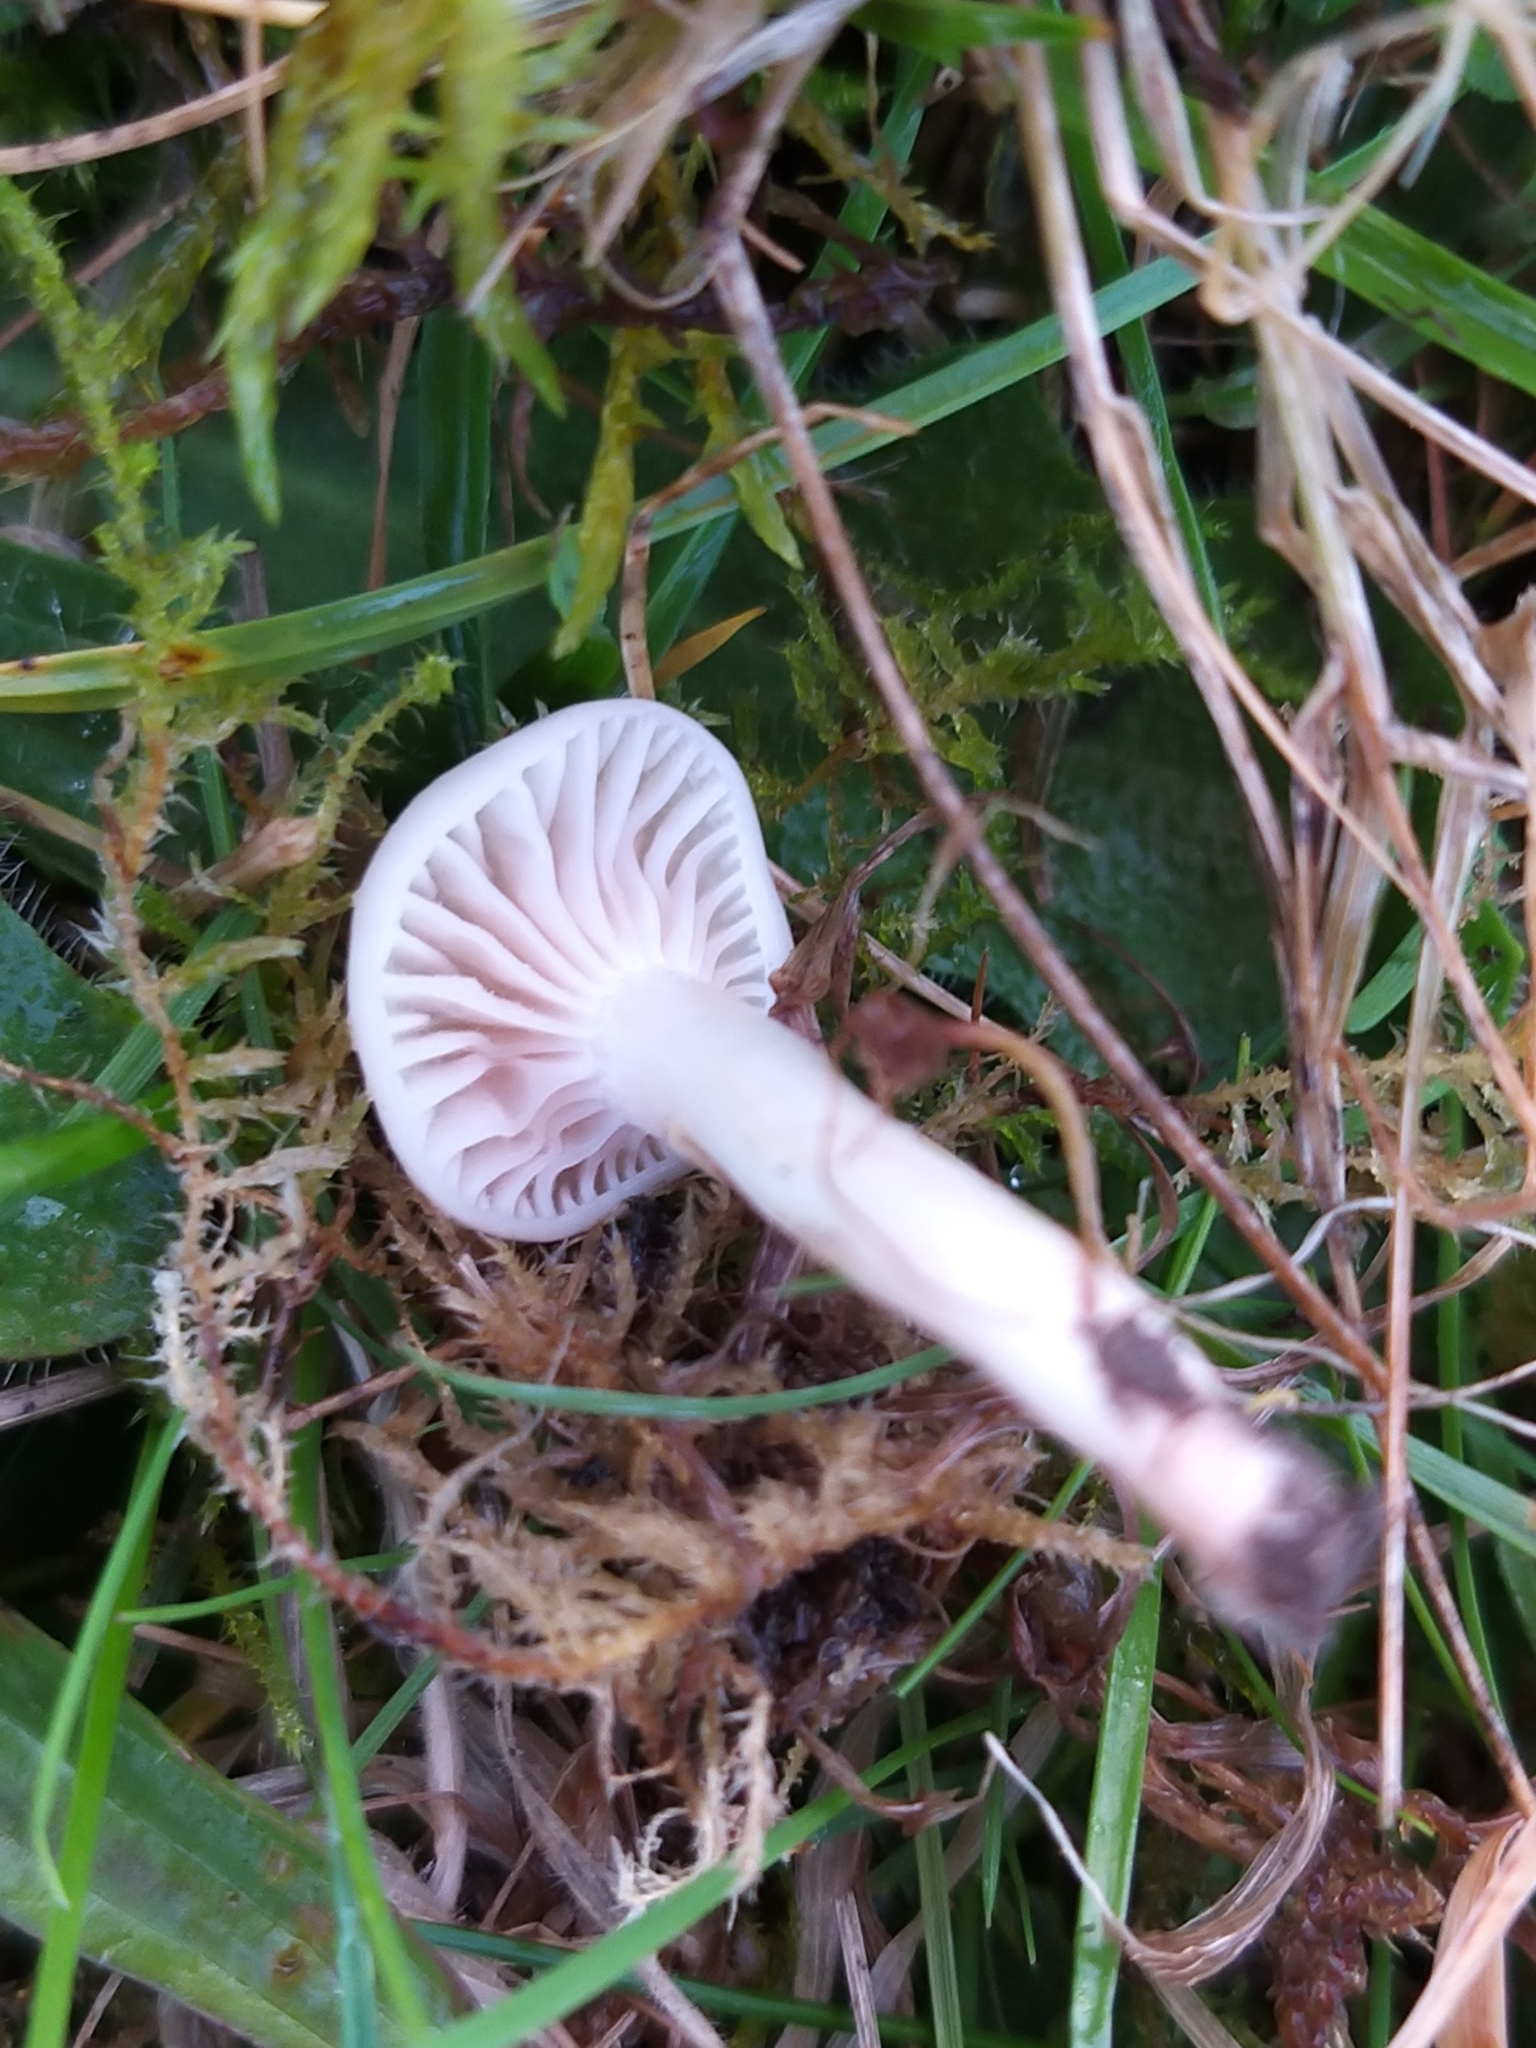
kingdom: Fungi
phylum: Basidiomycota
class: Agaricomycetes
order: Agaricales
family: Hygrophoraceae
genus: Cuphophyllus
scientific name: Cuphophyllus virgineus
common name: Snowy waxcap
